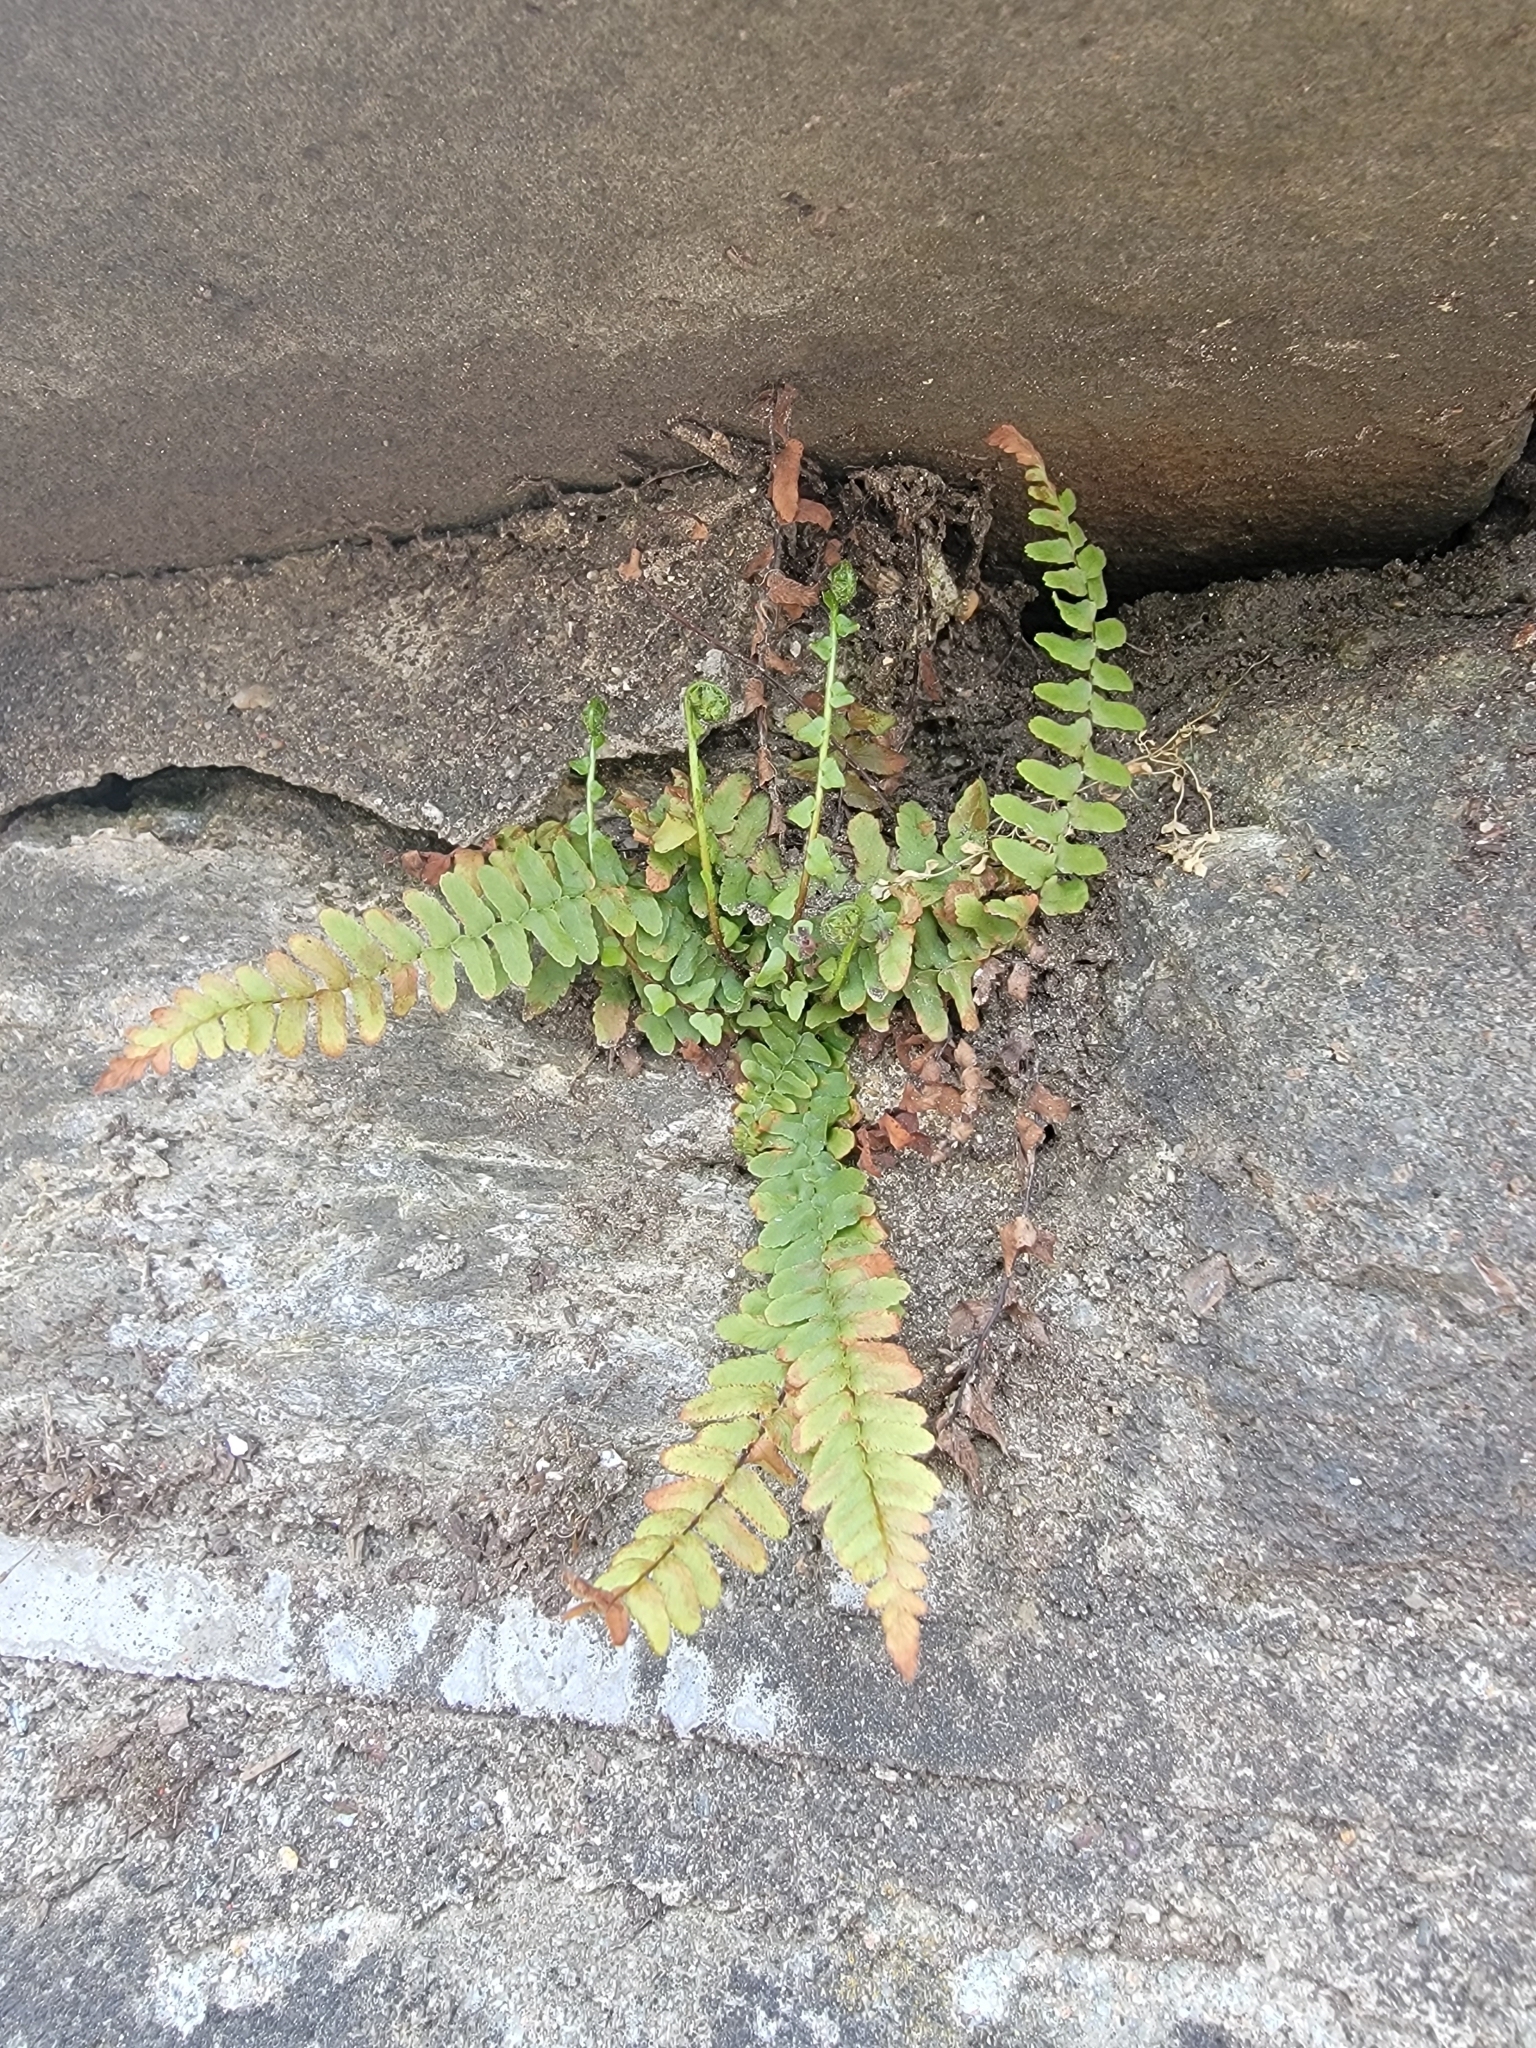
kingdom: Plantae
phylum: Tracheophyta
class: Polypodiopsida
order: Polypodiales
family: Aspleniaceae
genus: Asplenium
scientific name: Asplenium platyneuron
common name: Ebony spleenwort
